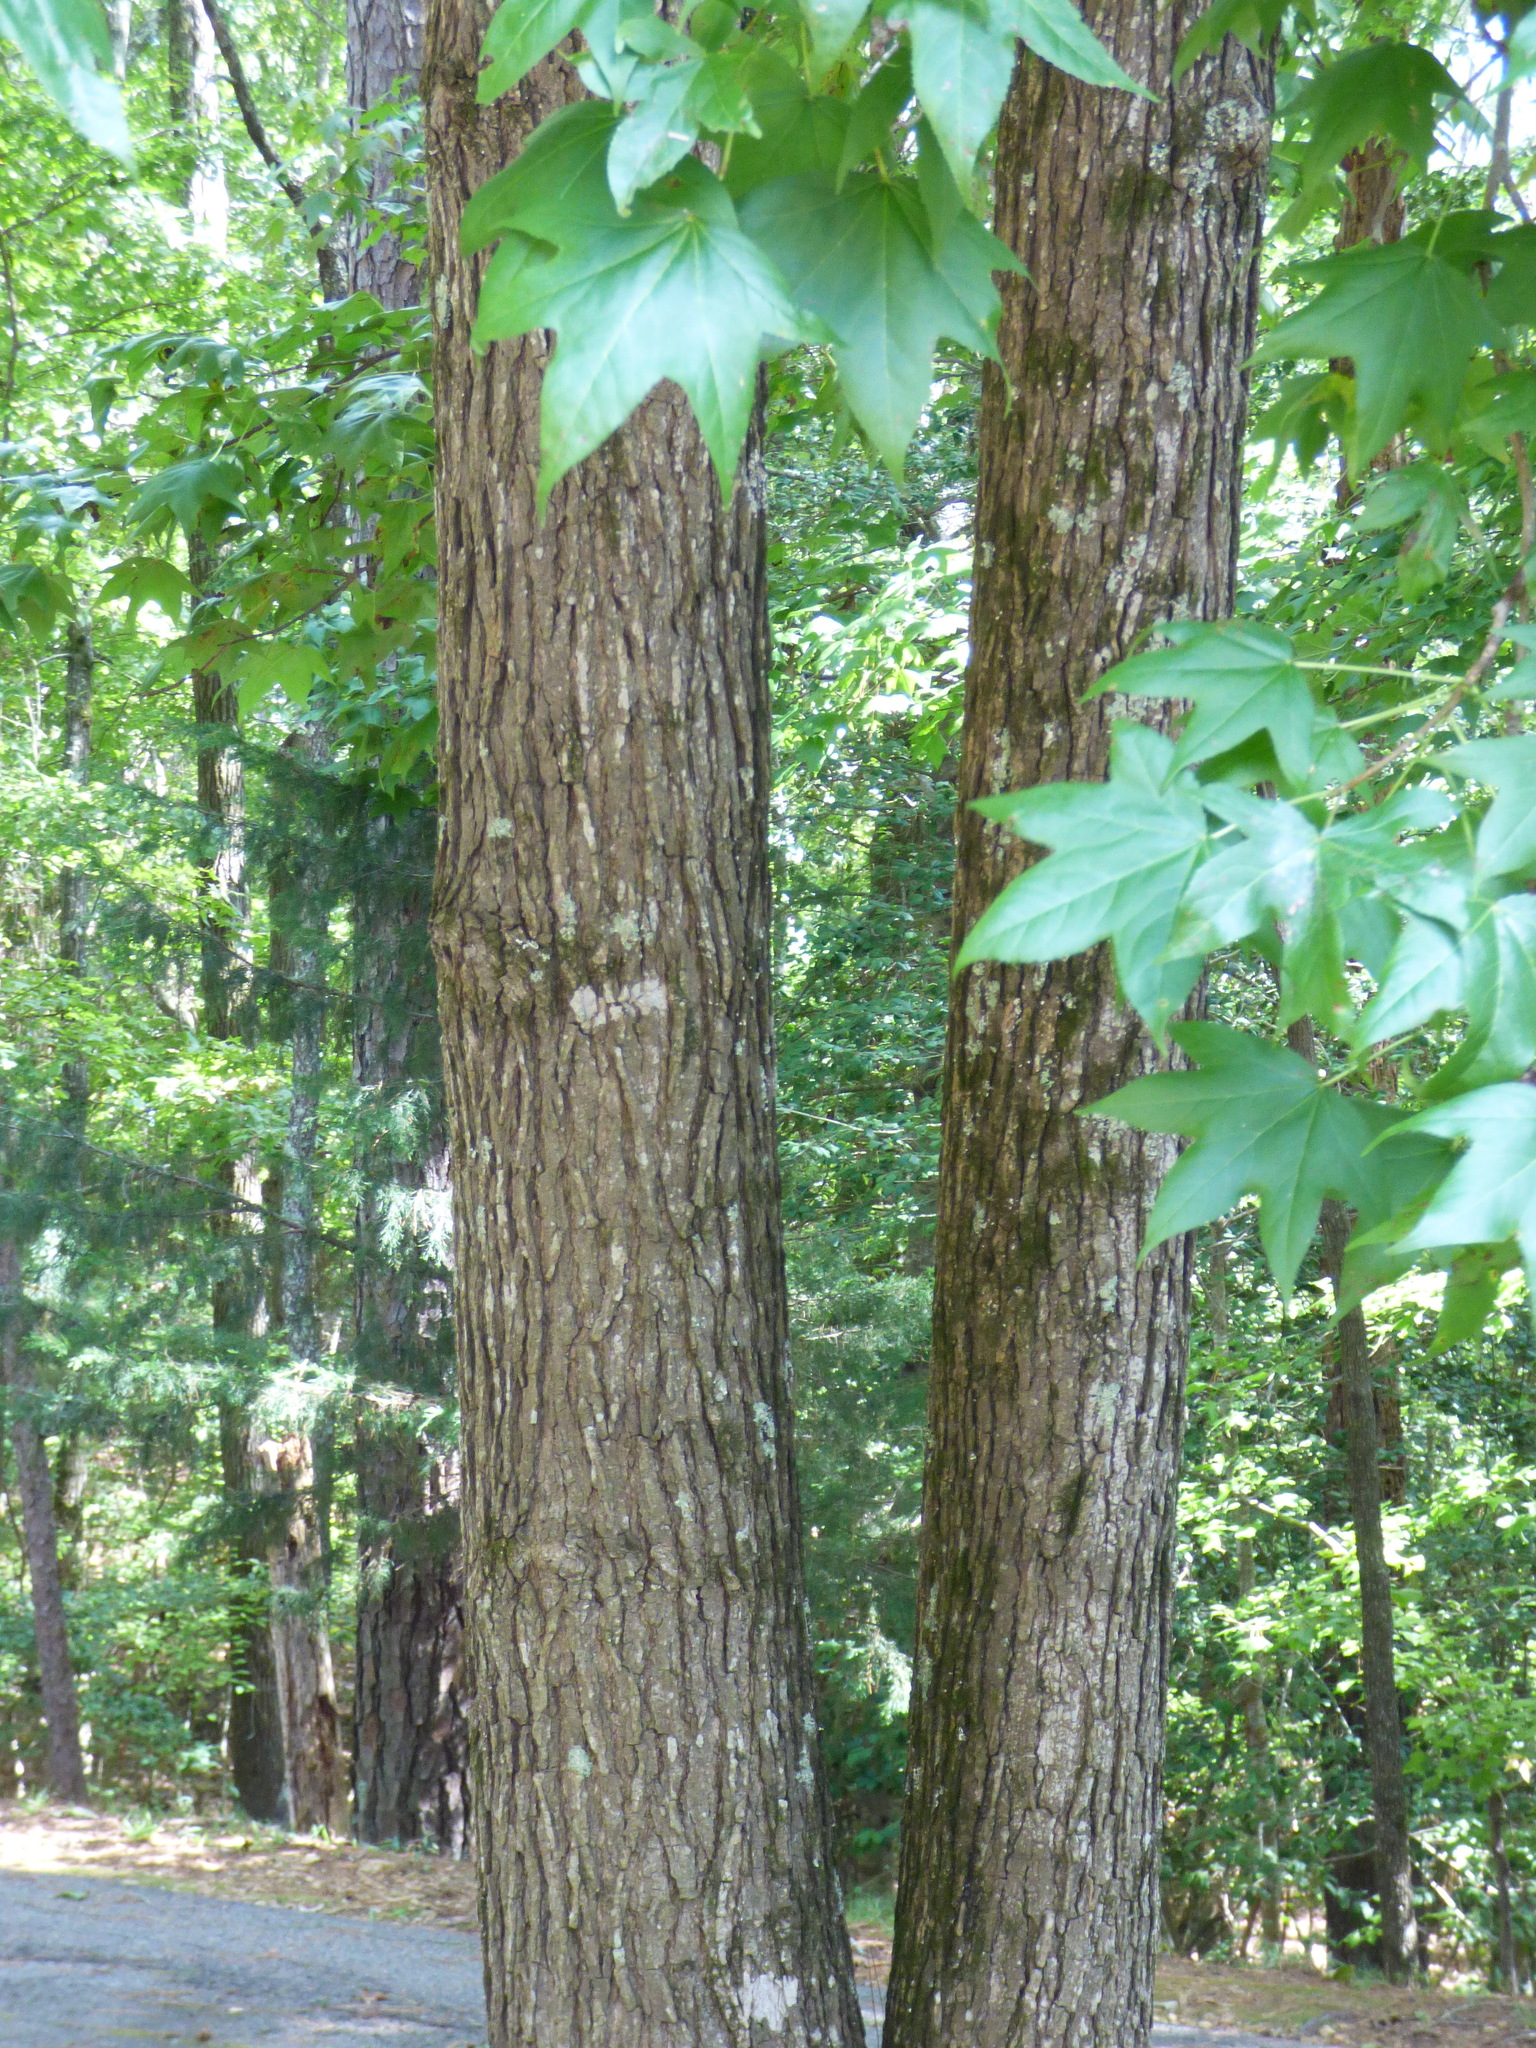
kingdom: Plantae
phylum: Tracheophyta
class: Magnoliopsida
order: Saxifragales
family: Altingiaceae
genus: Liquidambar
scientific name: Liquidambar styraciflua
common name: Sweet gum
